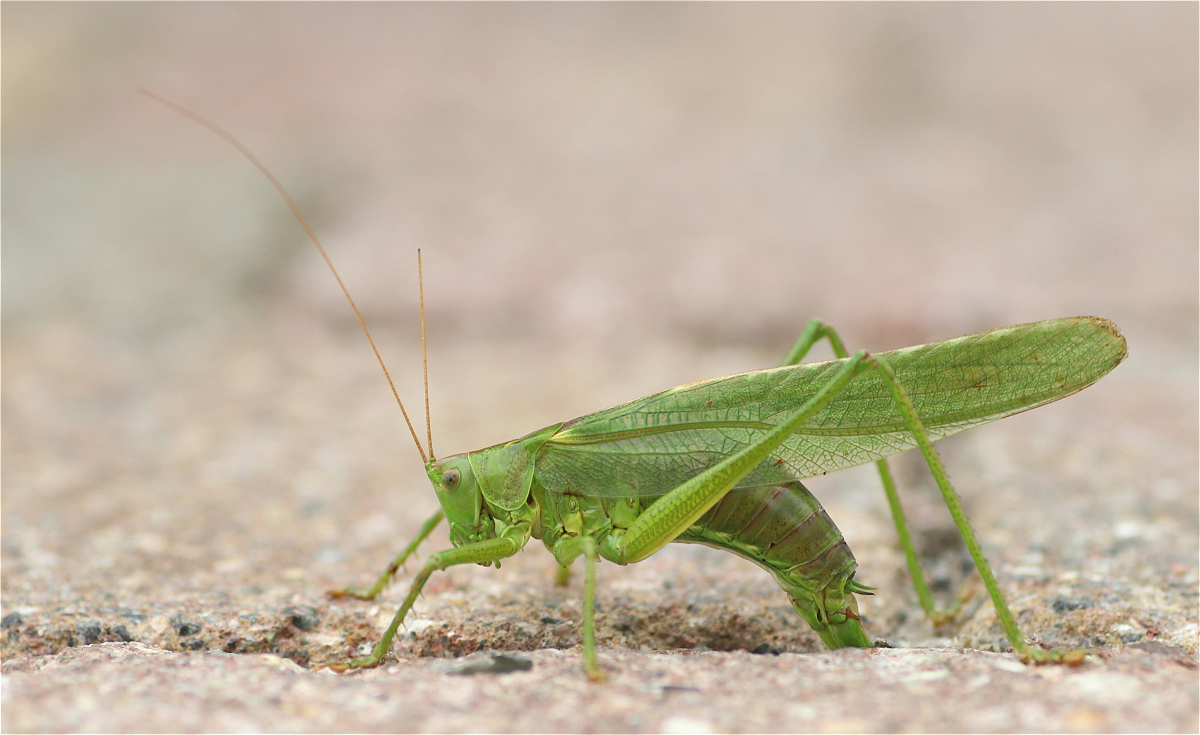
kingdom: Animalia
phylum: Arthropoda
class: Insecta
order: Orthoptera
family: Tettigoniidae
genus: Tettigonia
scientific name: Tettigonia viridissima
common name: Great green bush-cricket
